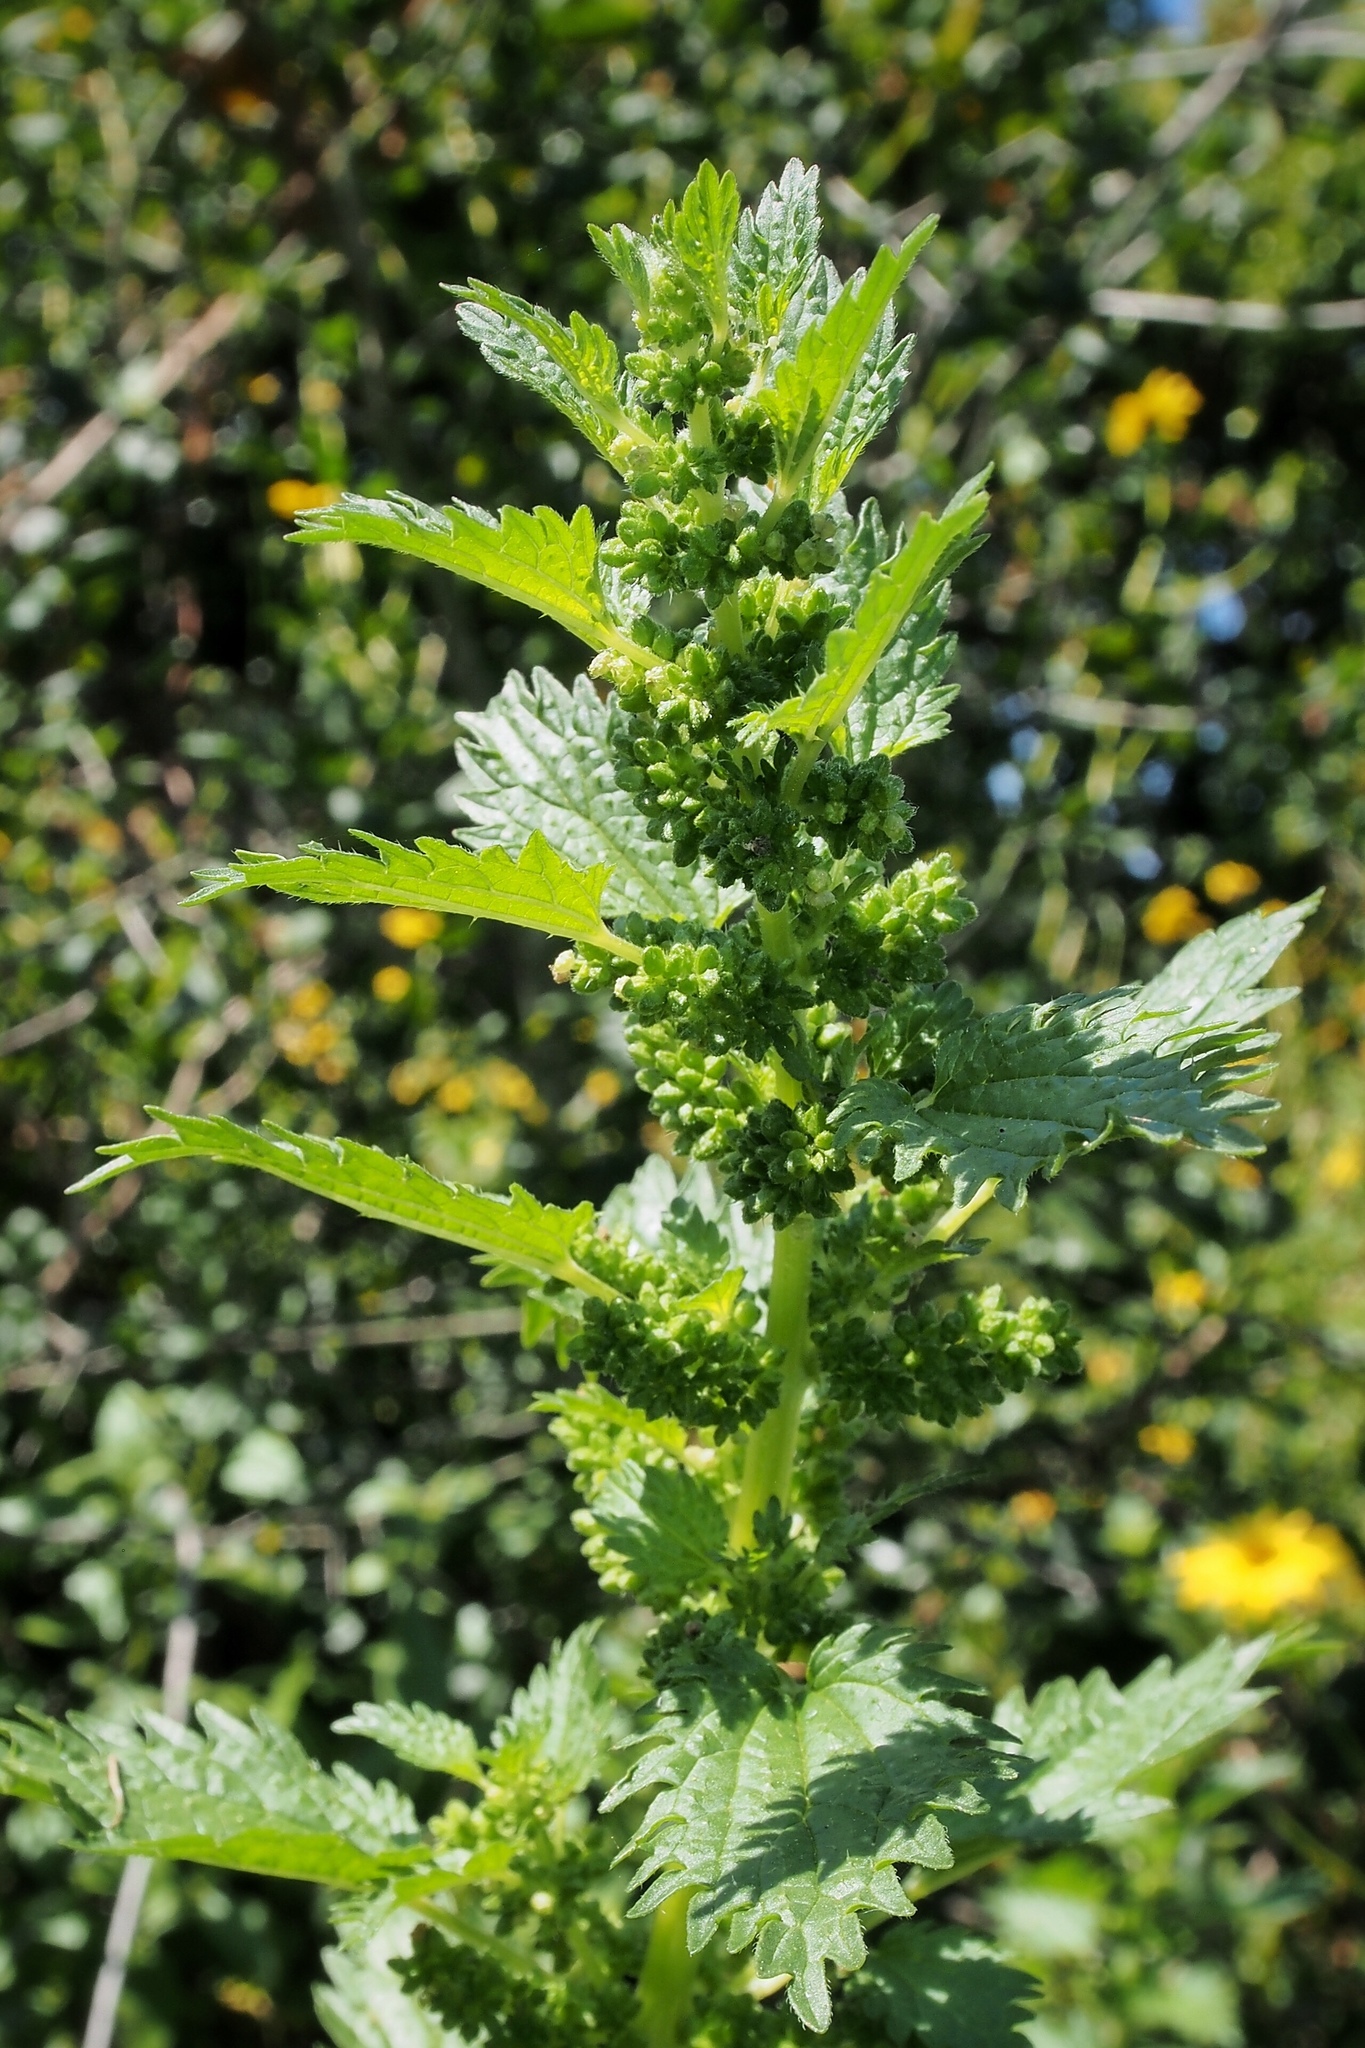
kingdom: Plantae
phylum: Tracheophyta
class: Magnoliopsida
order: Rosales
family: Urticaceae
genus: Urtica
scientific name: Urtica urens
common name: Dwarf nettle
